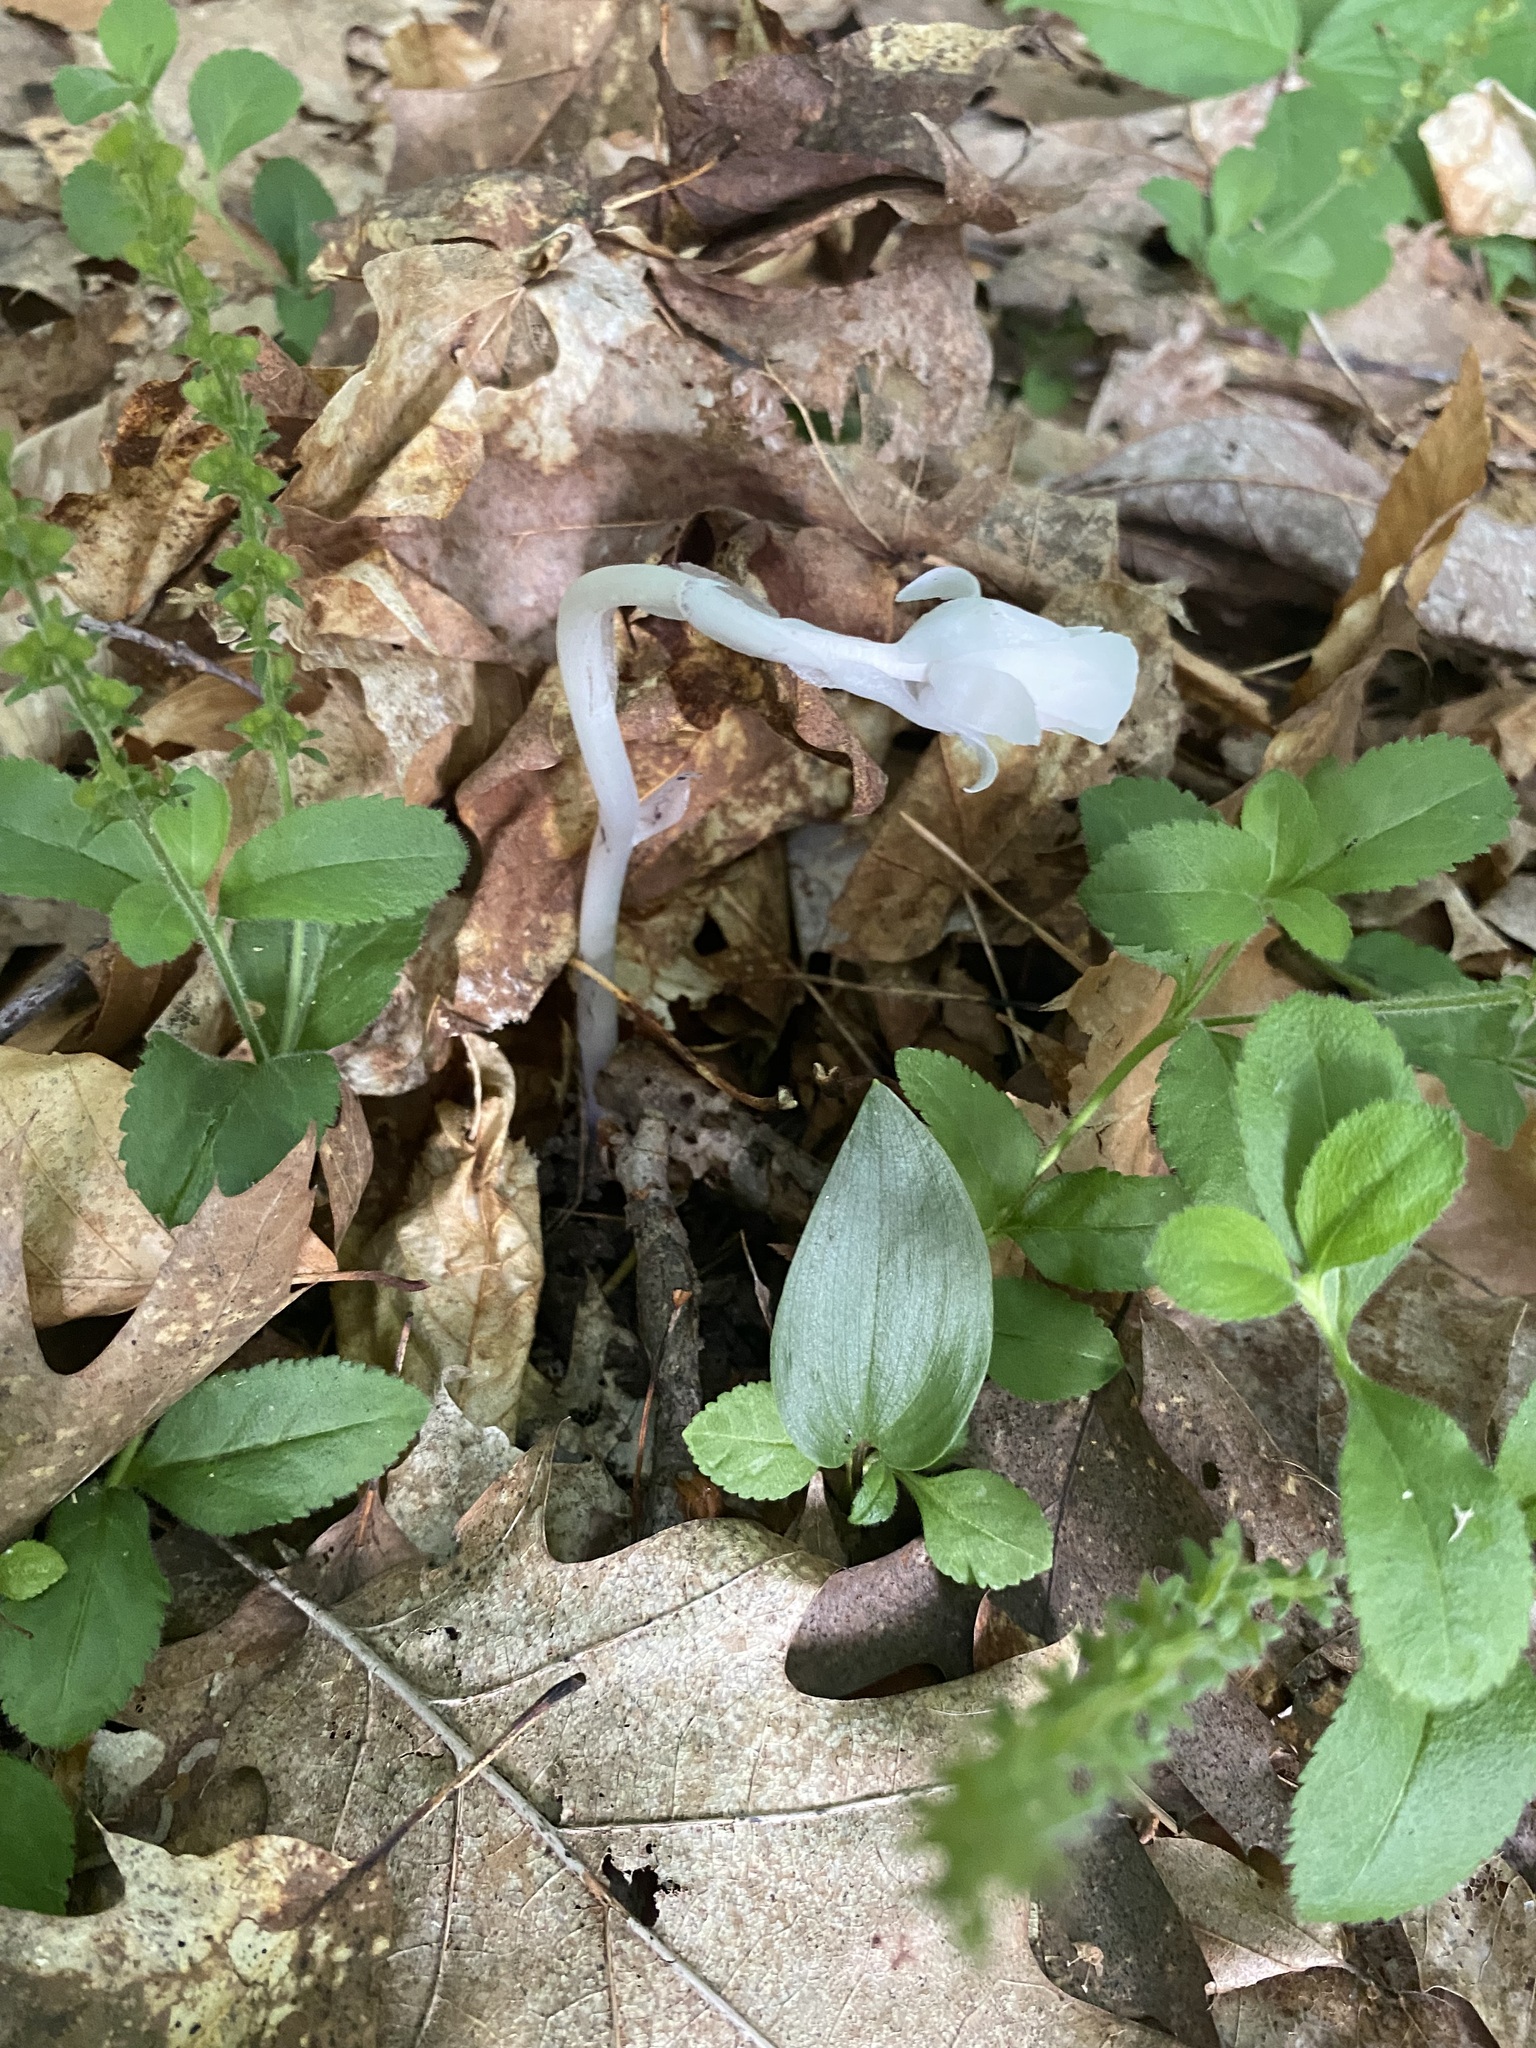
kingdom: Plantae
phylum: Tracheophyta
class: Magnoliopsida
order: Ericales
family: Ericaceae
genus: Monotropa
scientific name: Monotropa uniflora
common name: Convulsion root
